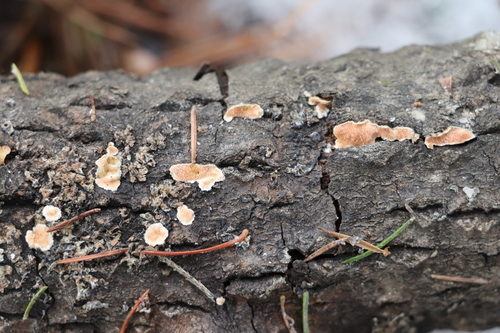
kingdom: Fungi
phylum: Basidiomycota
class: Agaricomycetes
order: Polyporales
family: Steccherinaceae
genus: Steccherinum
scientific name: Steccherinum
